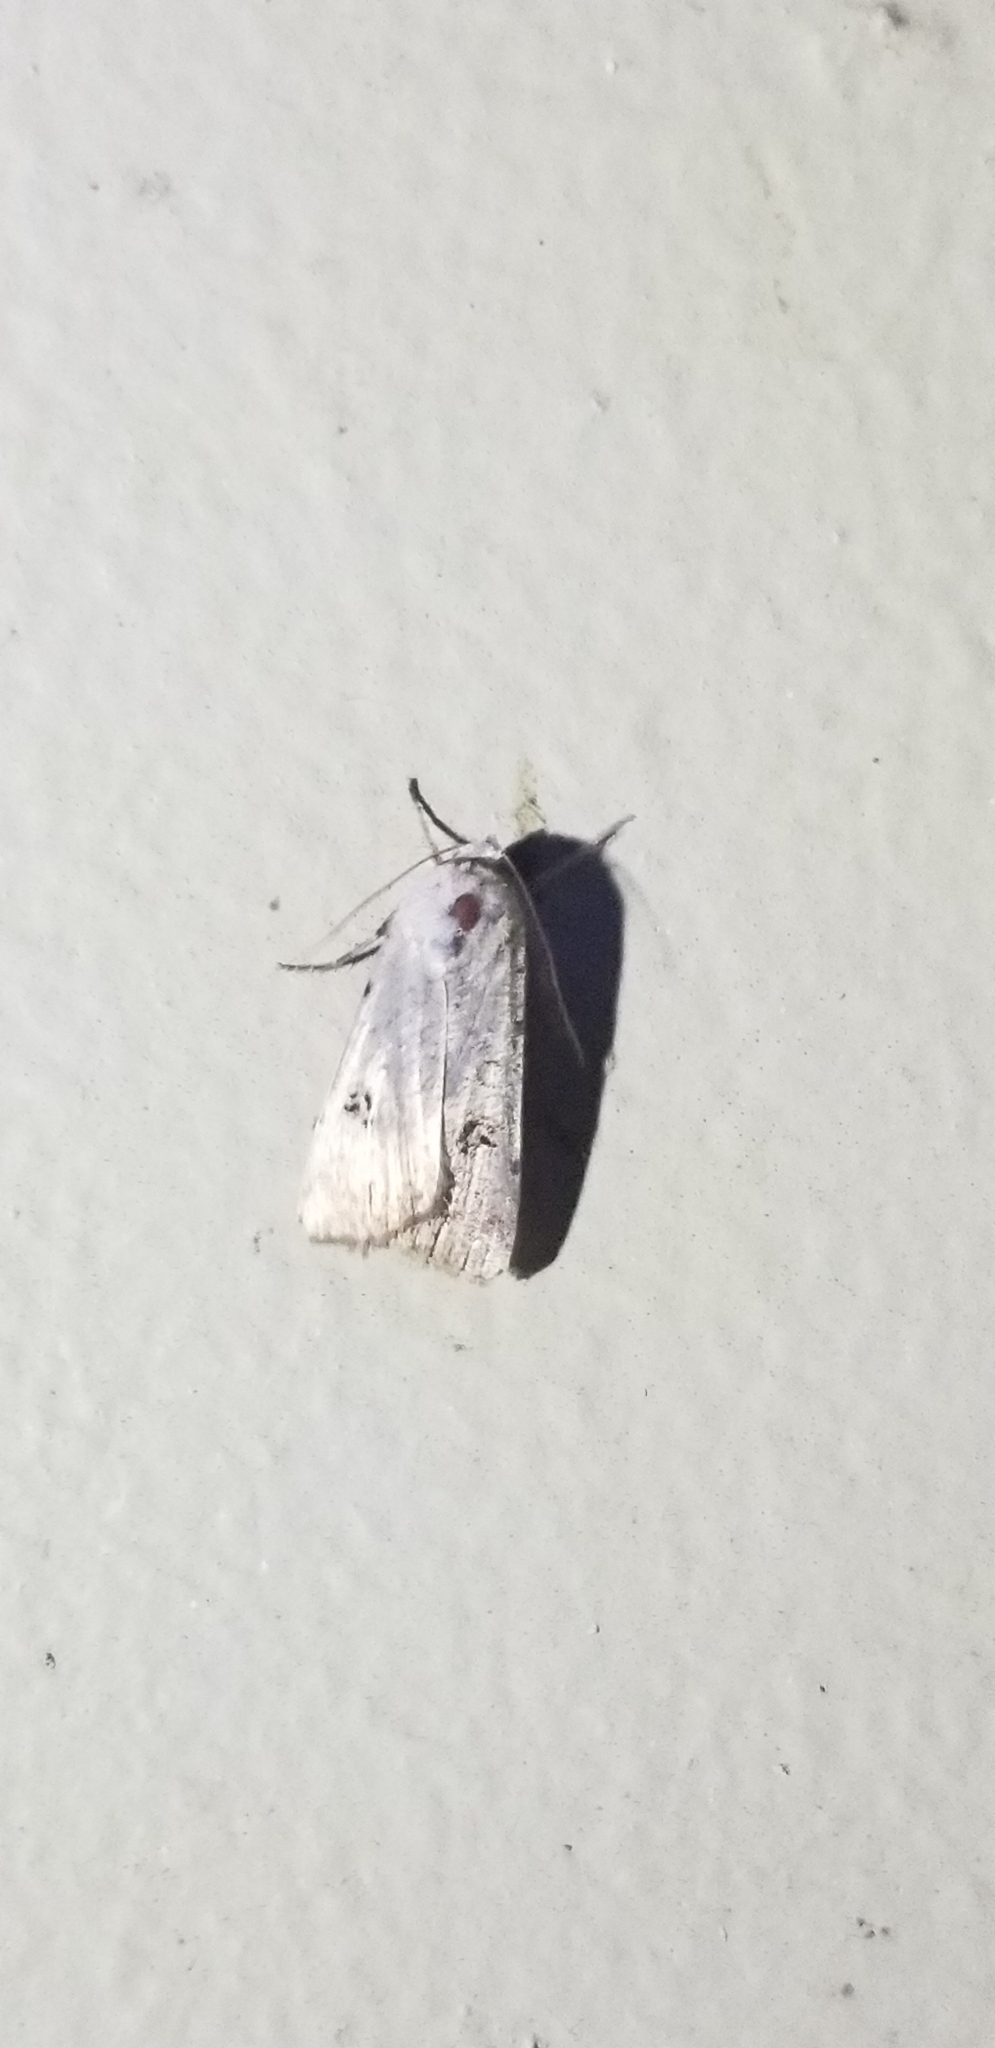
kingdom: Animalia
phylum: Arthropoda
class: Insecta
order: Lepidoptera
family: Noctuidae
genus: Anicla
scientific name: Anicla infecta
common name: Green cutworm
